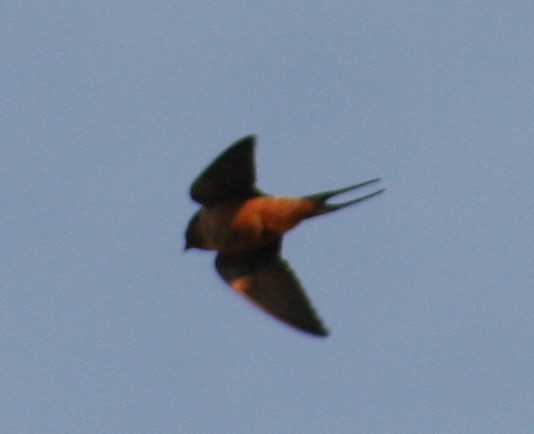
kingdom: Animalia
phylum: Chordata
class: Aves
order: Passeriformes
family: Hirundinidae
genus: Hirundo
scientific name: Hirundo rustica
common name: Barn swallow
